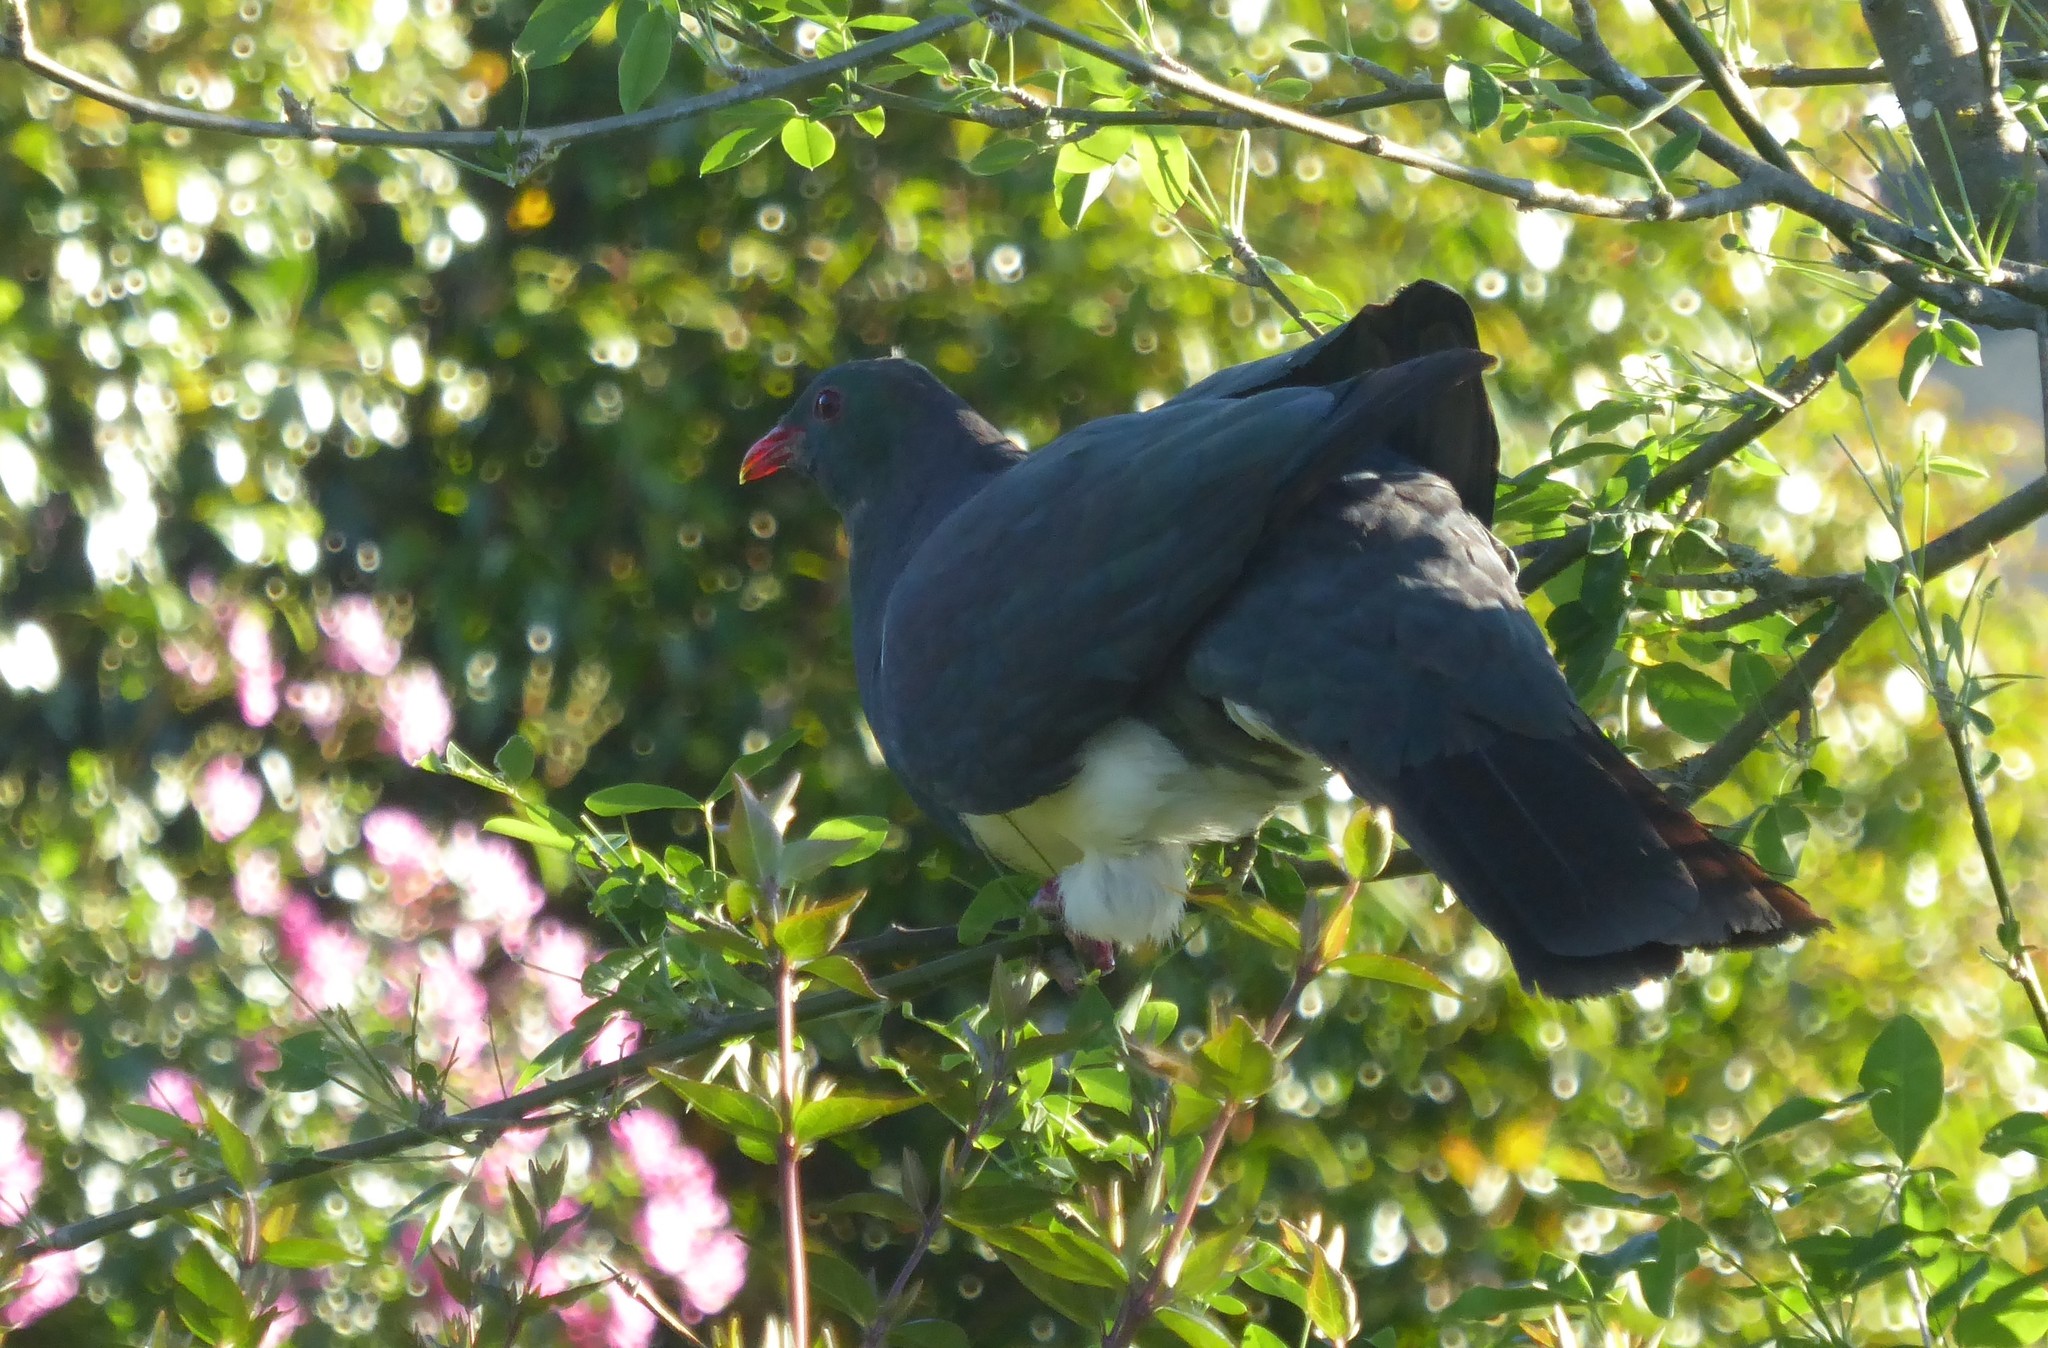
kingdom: Animalia
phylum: Chordata
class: Aves
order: Columbiformes
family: Columbidae
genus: Hemiphaga
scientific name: Hemiphaga novaeseelandiae
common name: New zealand pigeon
